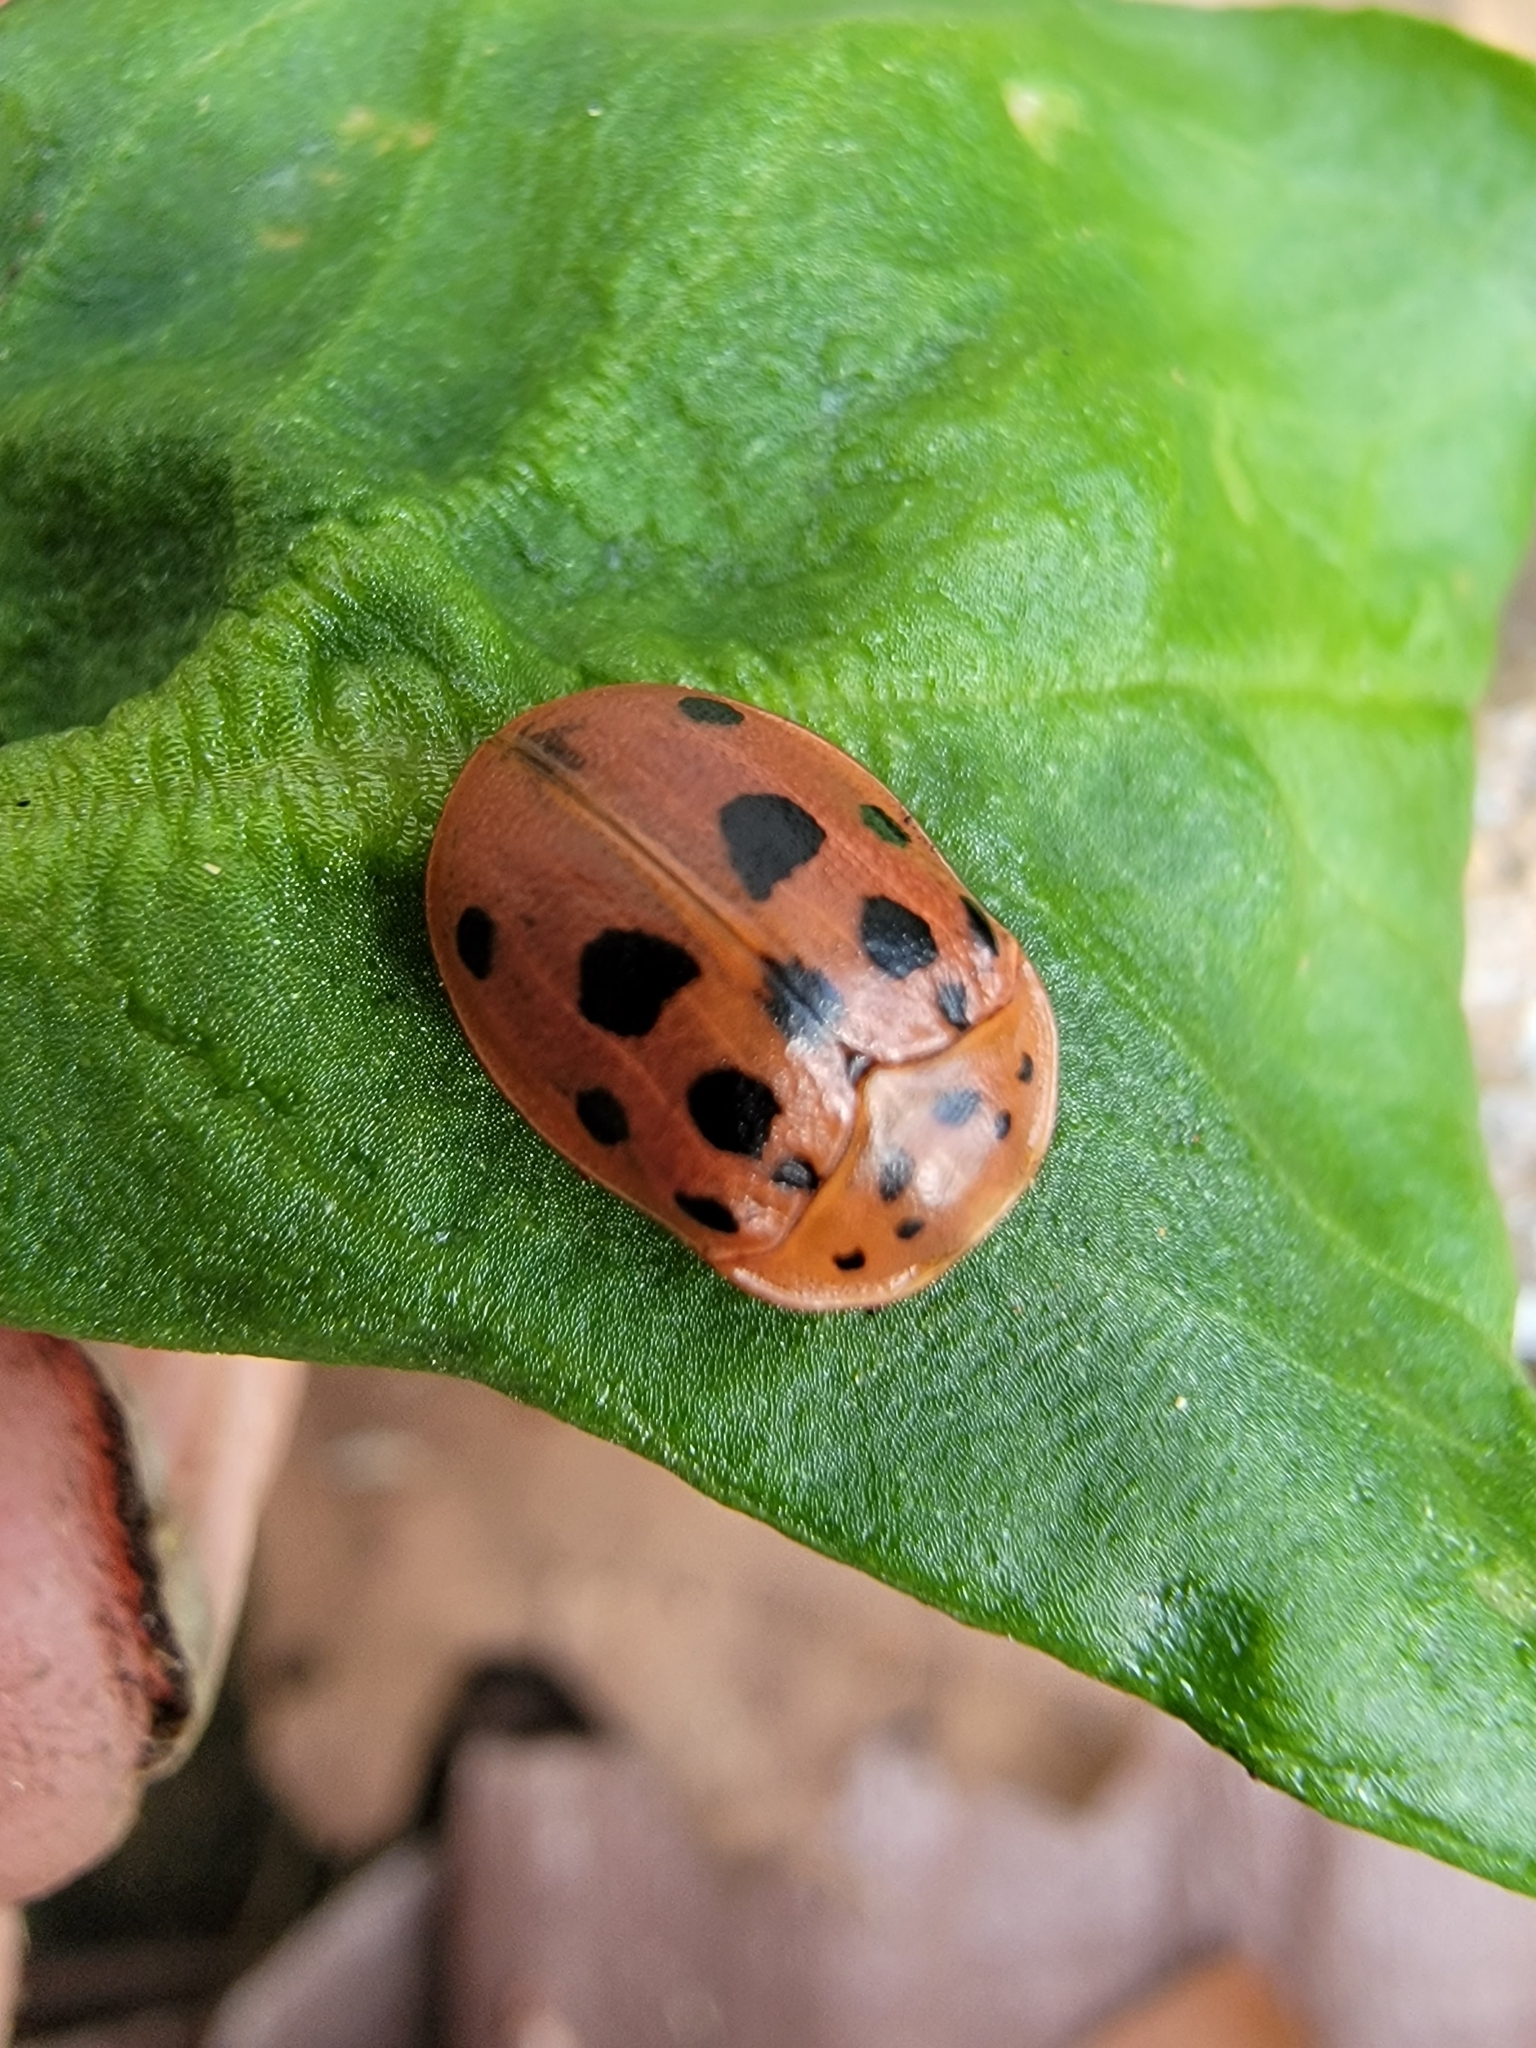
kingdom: Animalia
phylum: Arthropoda
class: Insecta
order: Coleoptera
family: Chrysomelidae
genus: Chelymorpha
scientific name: Chelymorpha cassidea
